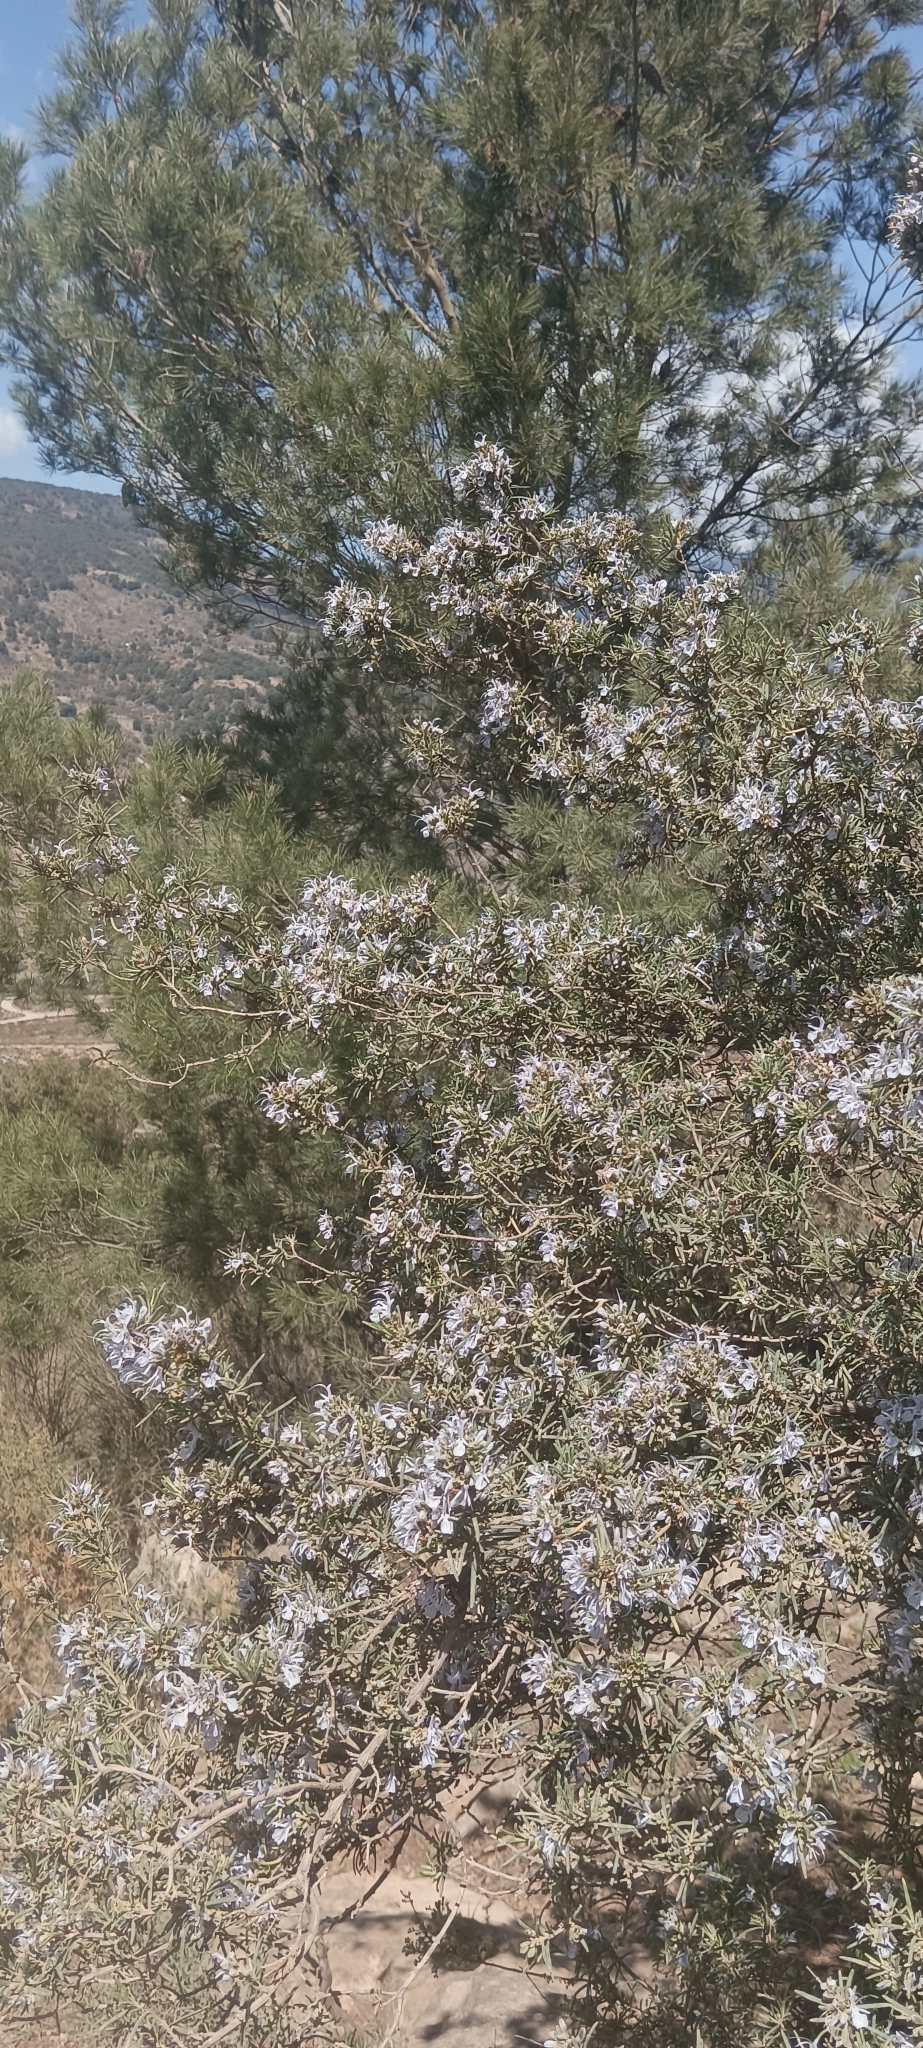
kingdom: Plantae
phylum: Tracheophyta
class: Magnoliopsida
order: Lamiales
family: Lamiaceae
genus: Salvia
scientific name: Salvia rosmarinus
